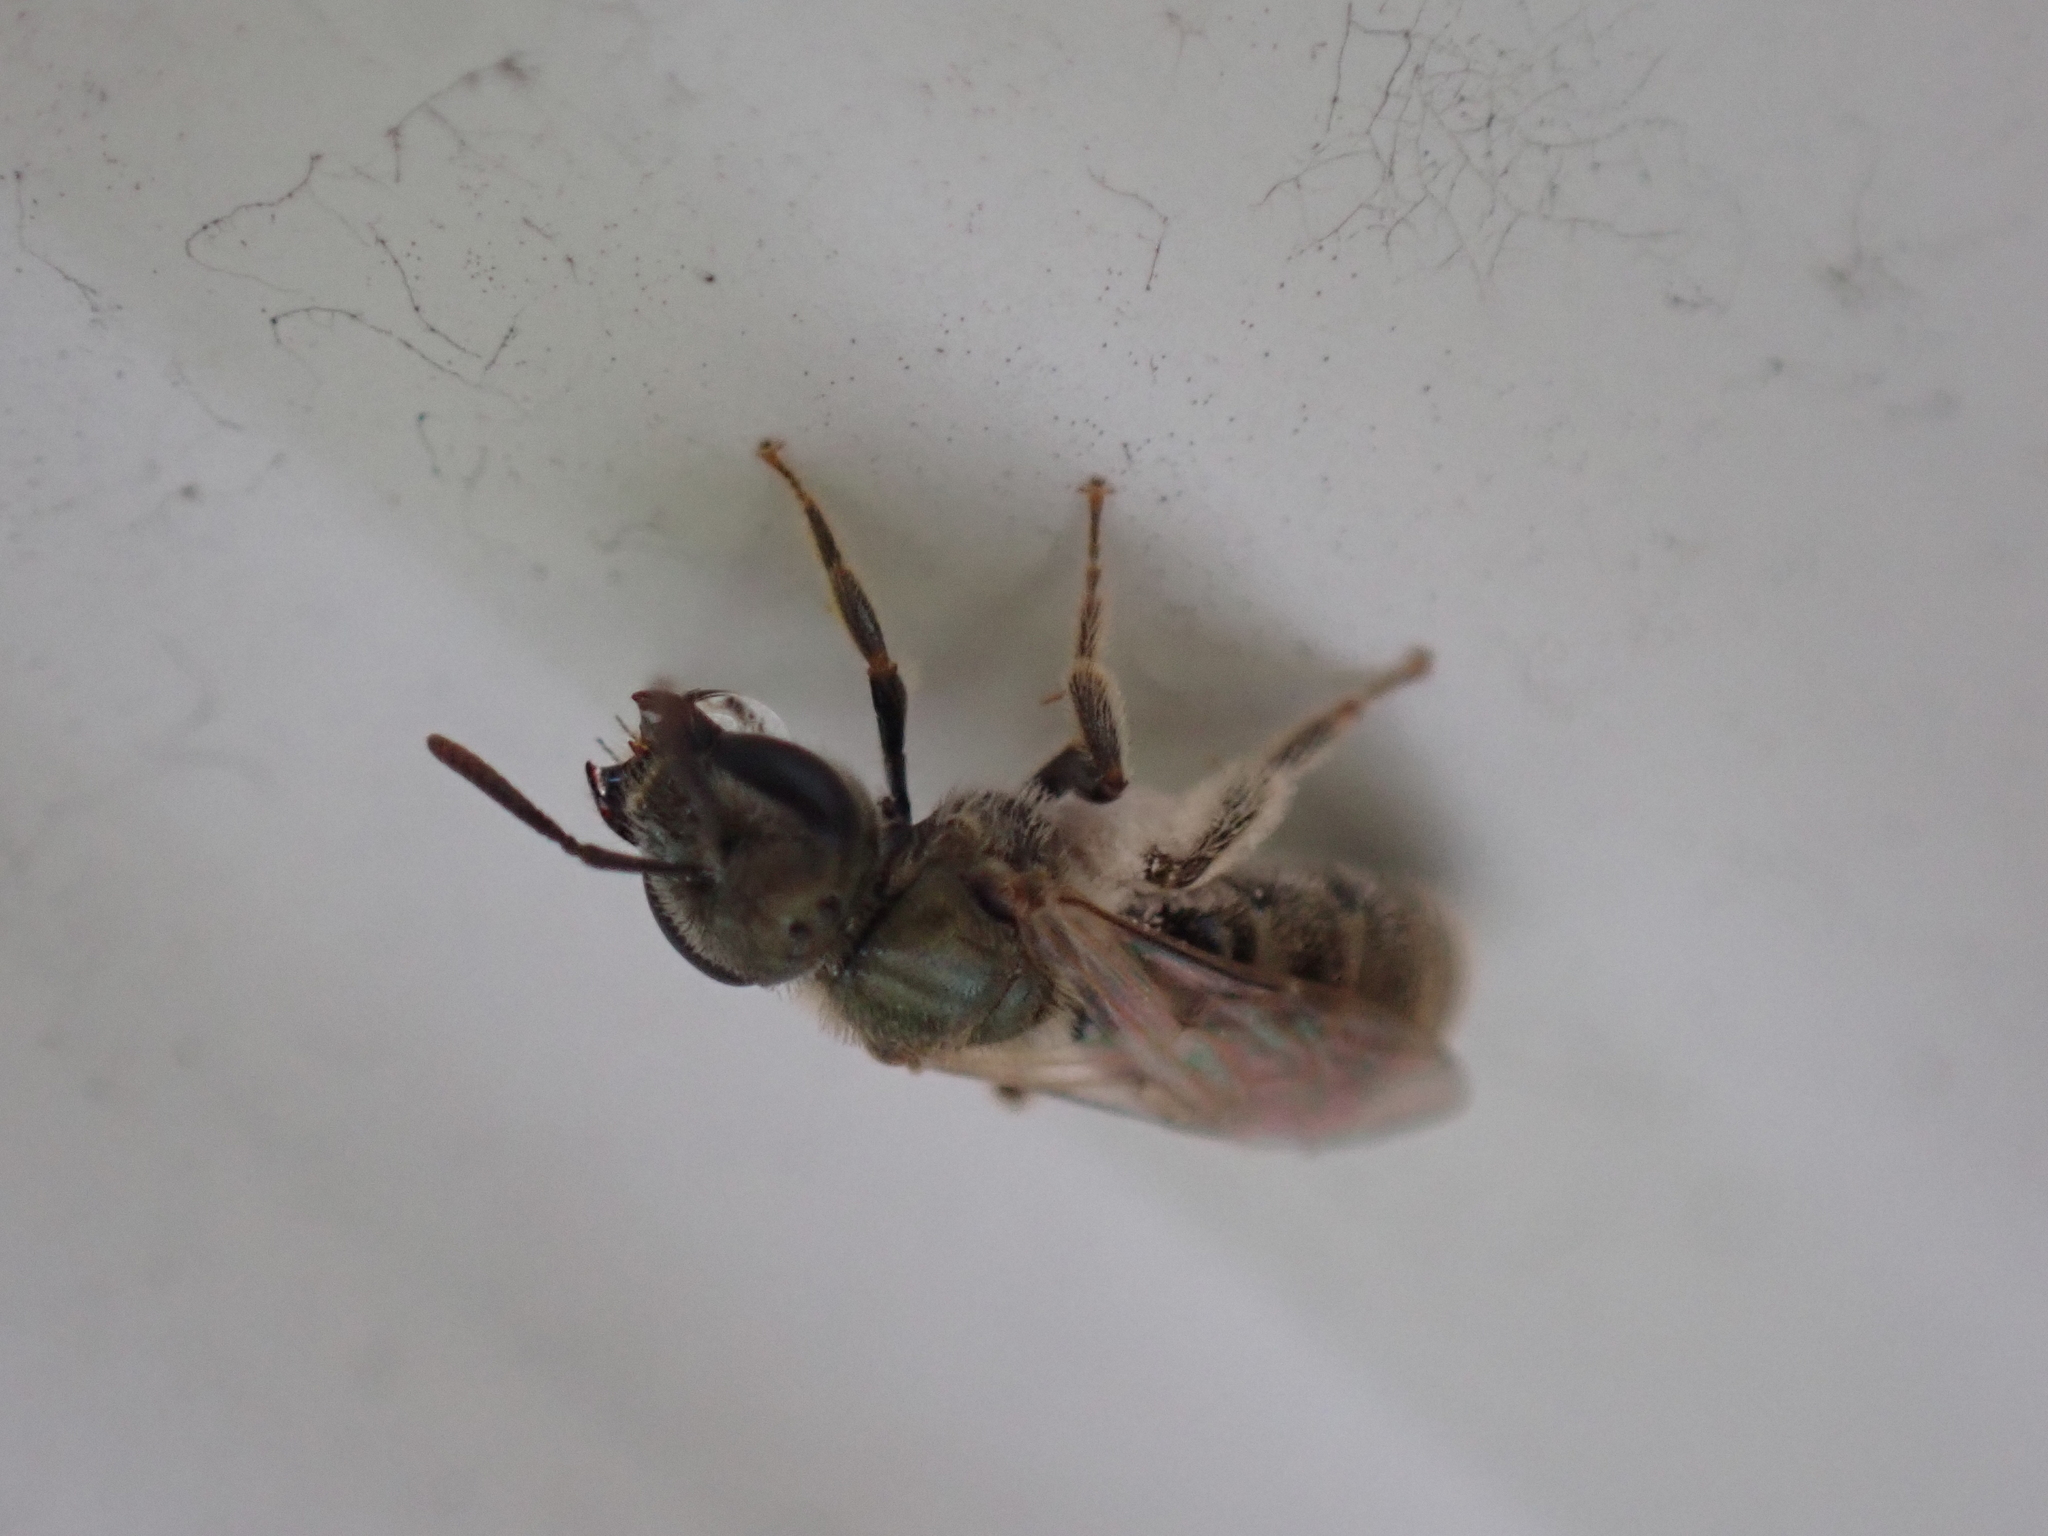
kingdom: Animalia
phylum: Arthropoda
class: Insecta
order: Hymenoptera
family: Halictidae
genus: Dialictus
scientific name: Dialictus
